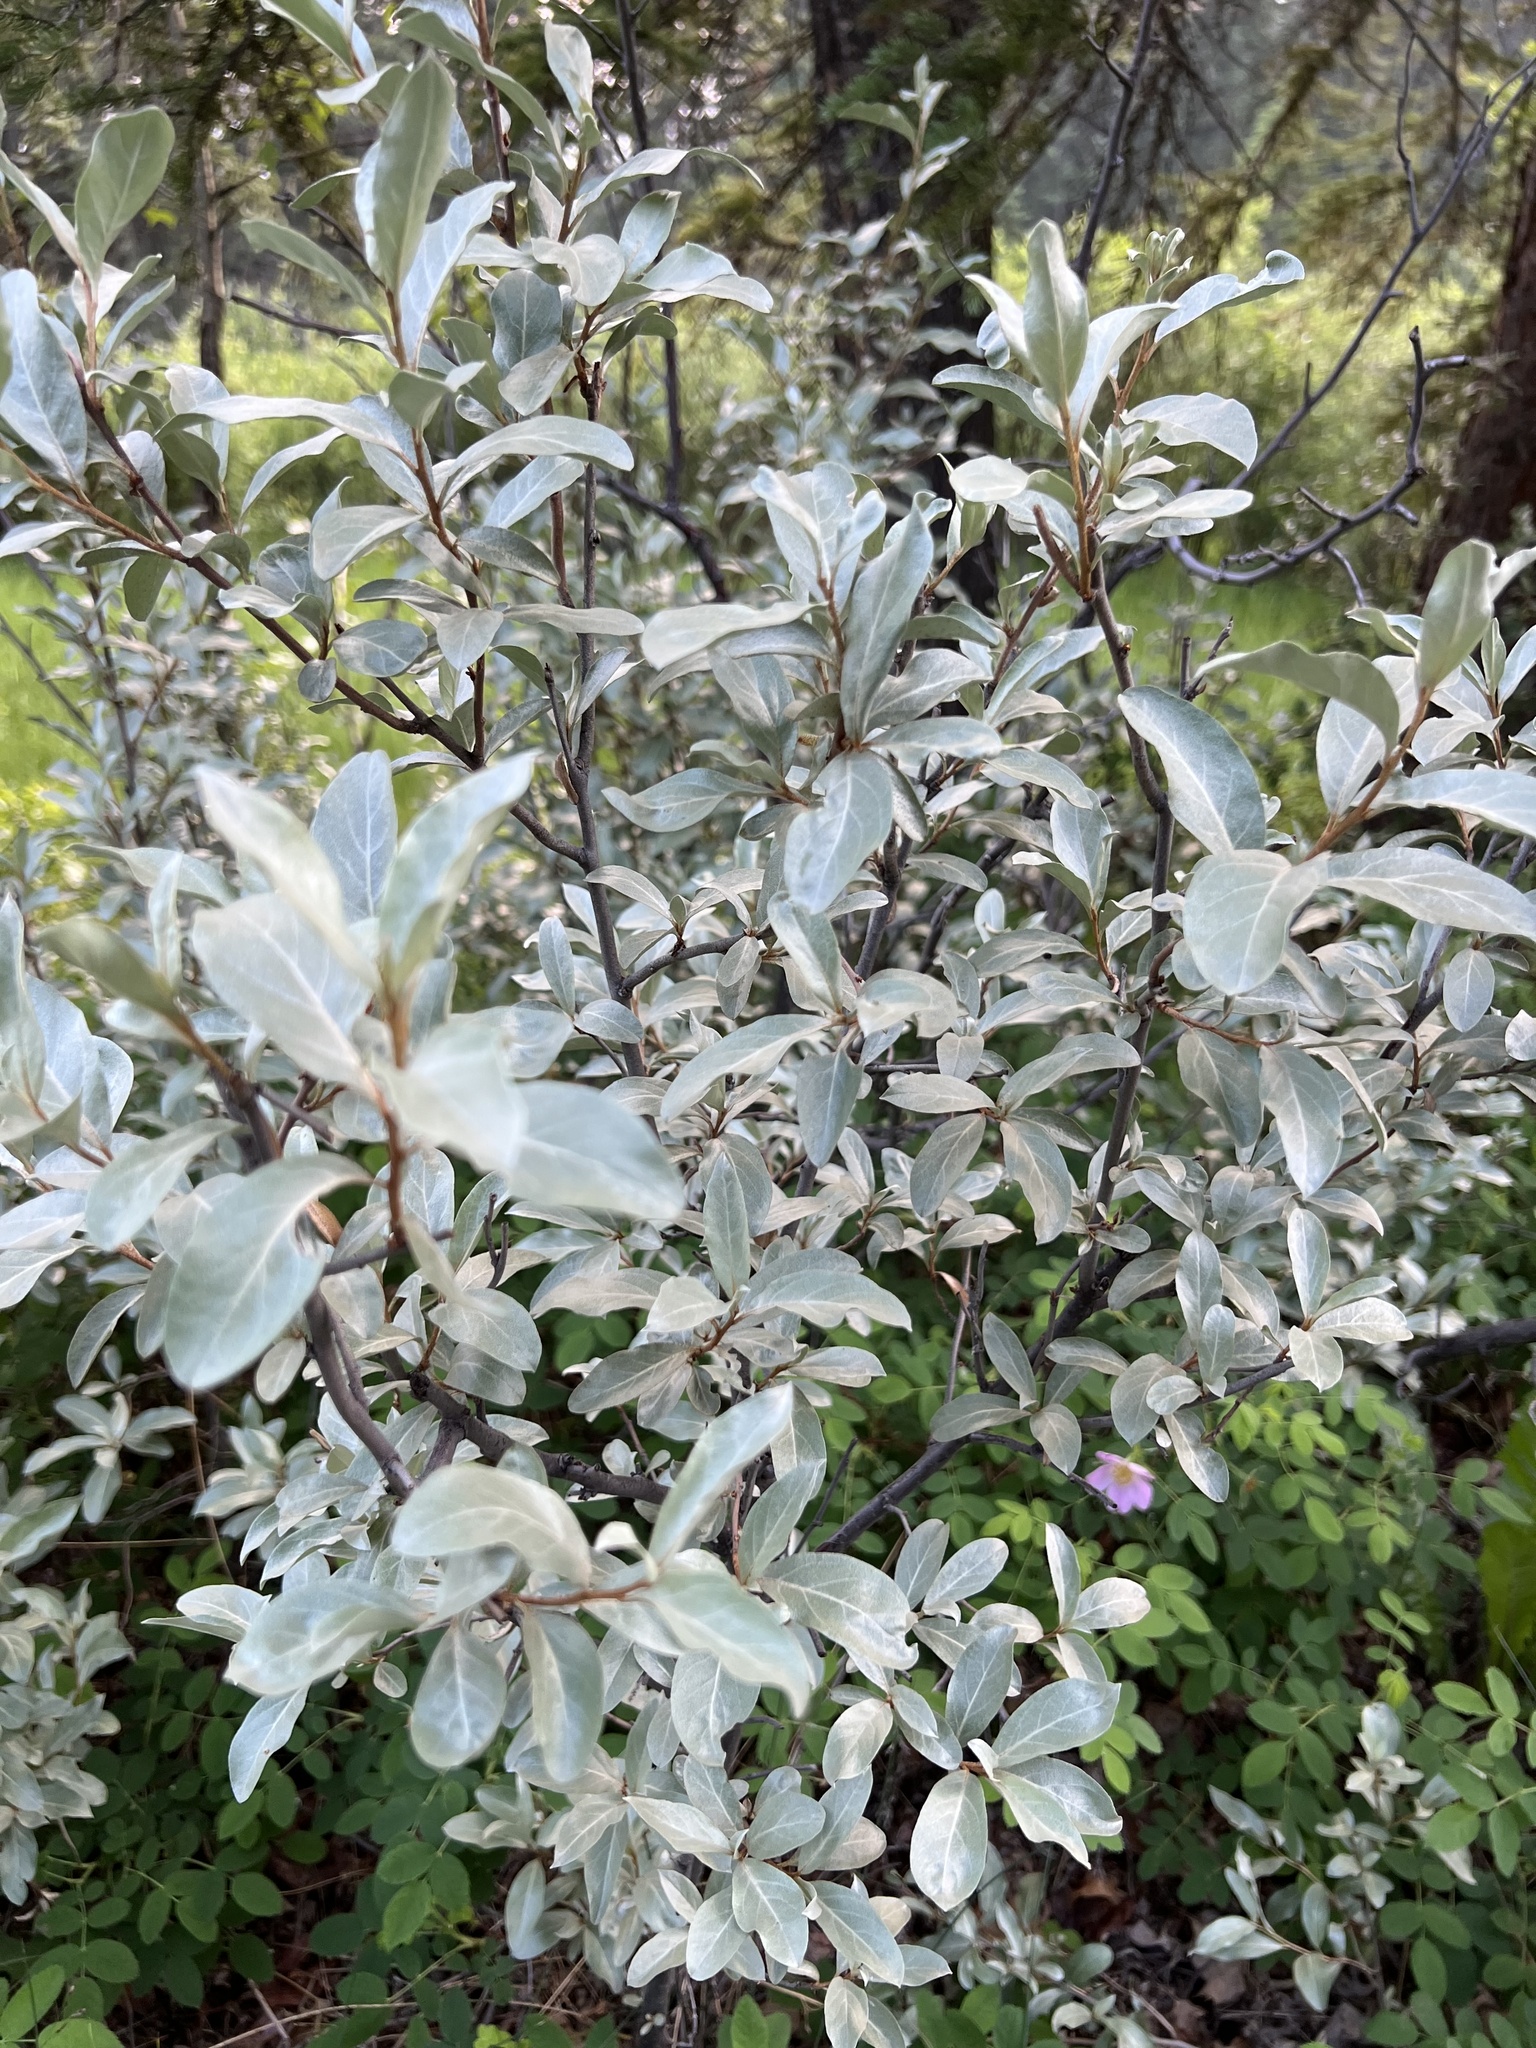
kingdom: Plantae
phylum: Tracheophyta
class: Magnoliopsida
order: Rosales
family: Elaeagnaceae
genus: Elaeagnus
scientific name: Elaeagnus commutata
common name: Silverberry
